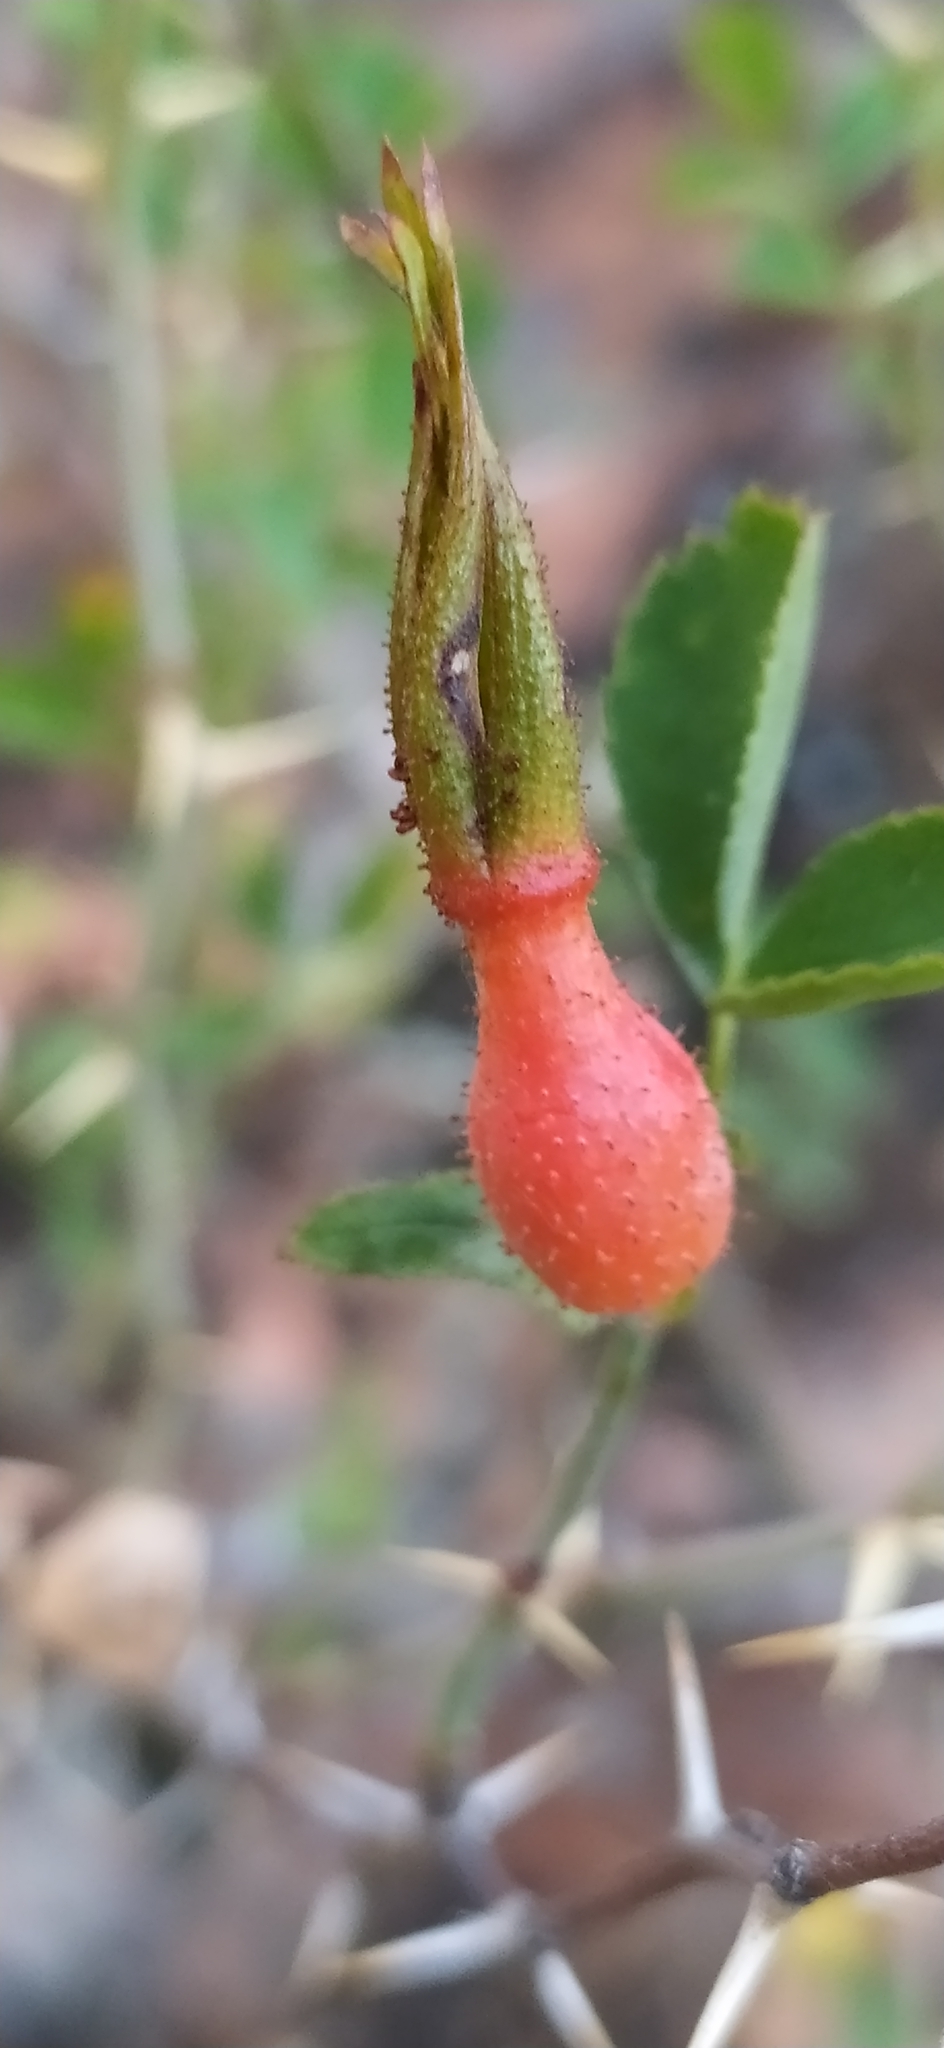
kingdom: Plantae
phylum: Tracheophyta
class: Magnoliopsida
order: Rosales
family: Rosaceae
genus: Rosa
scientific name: Rosa webbiana
